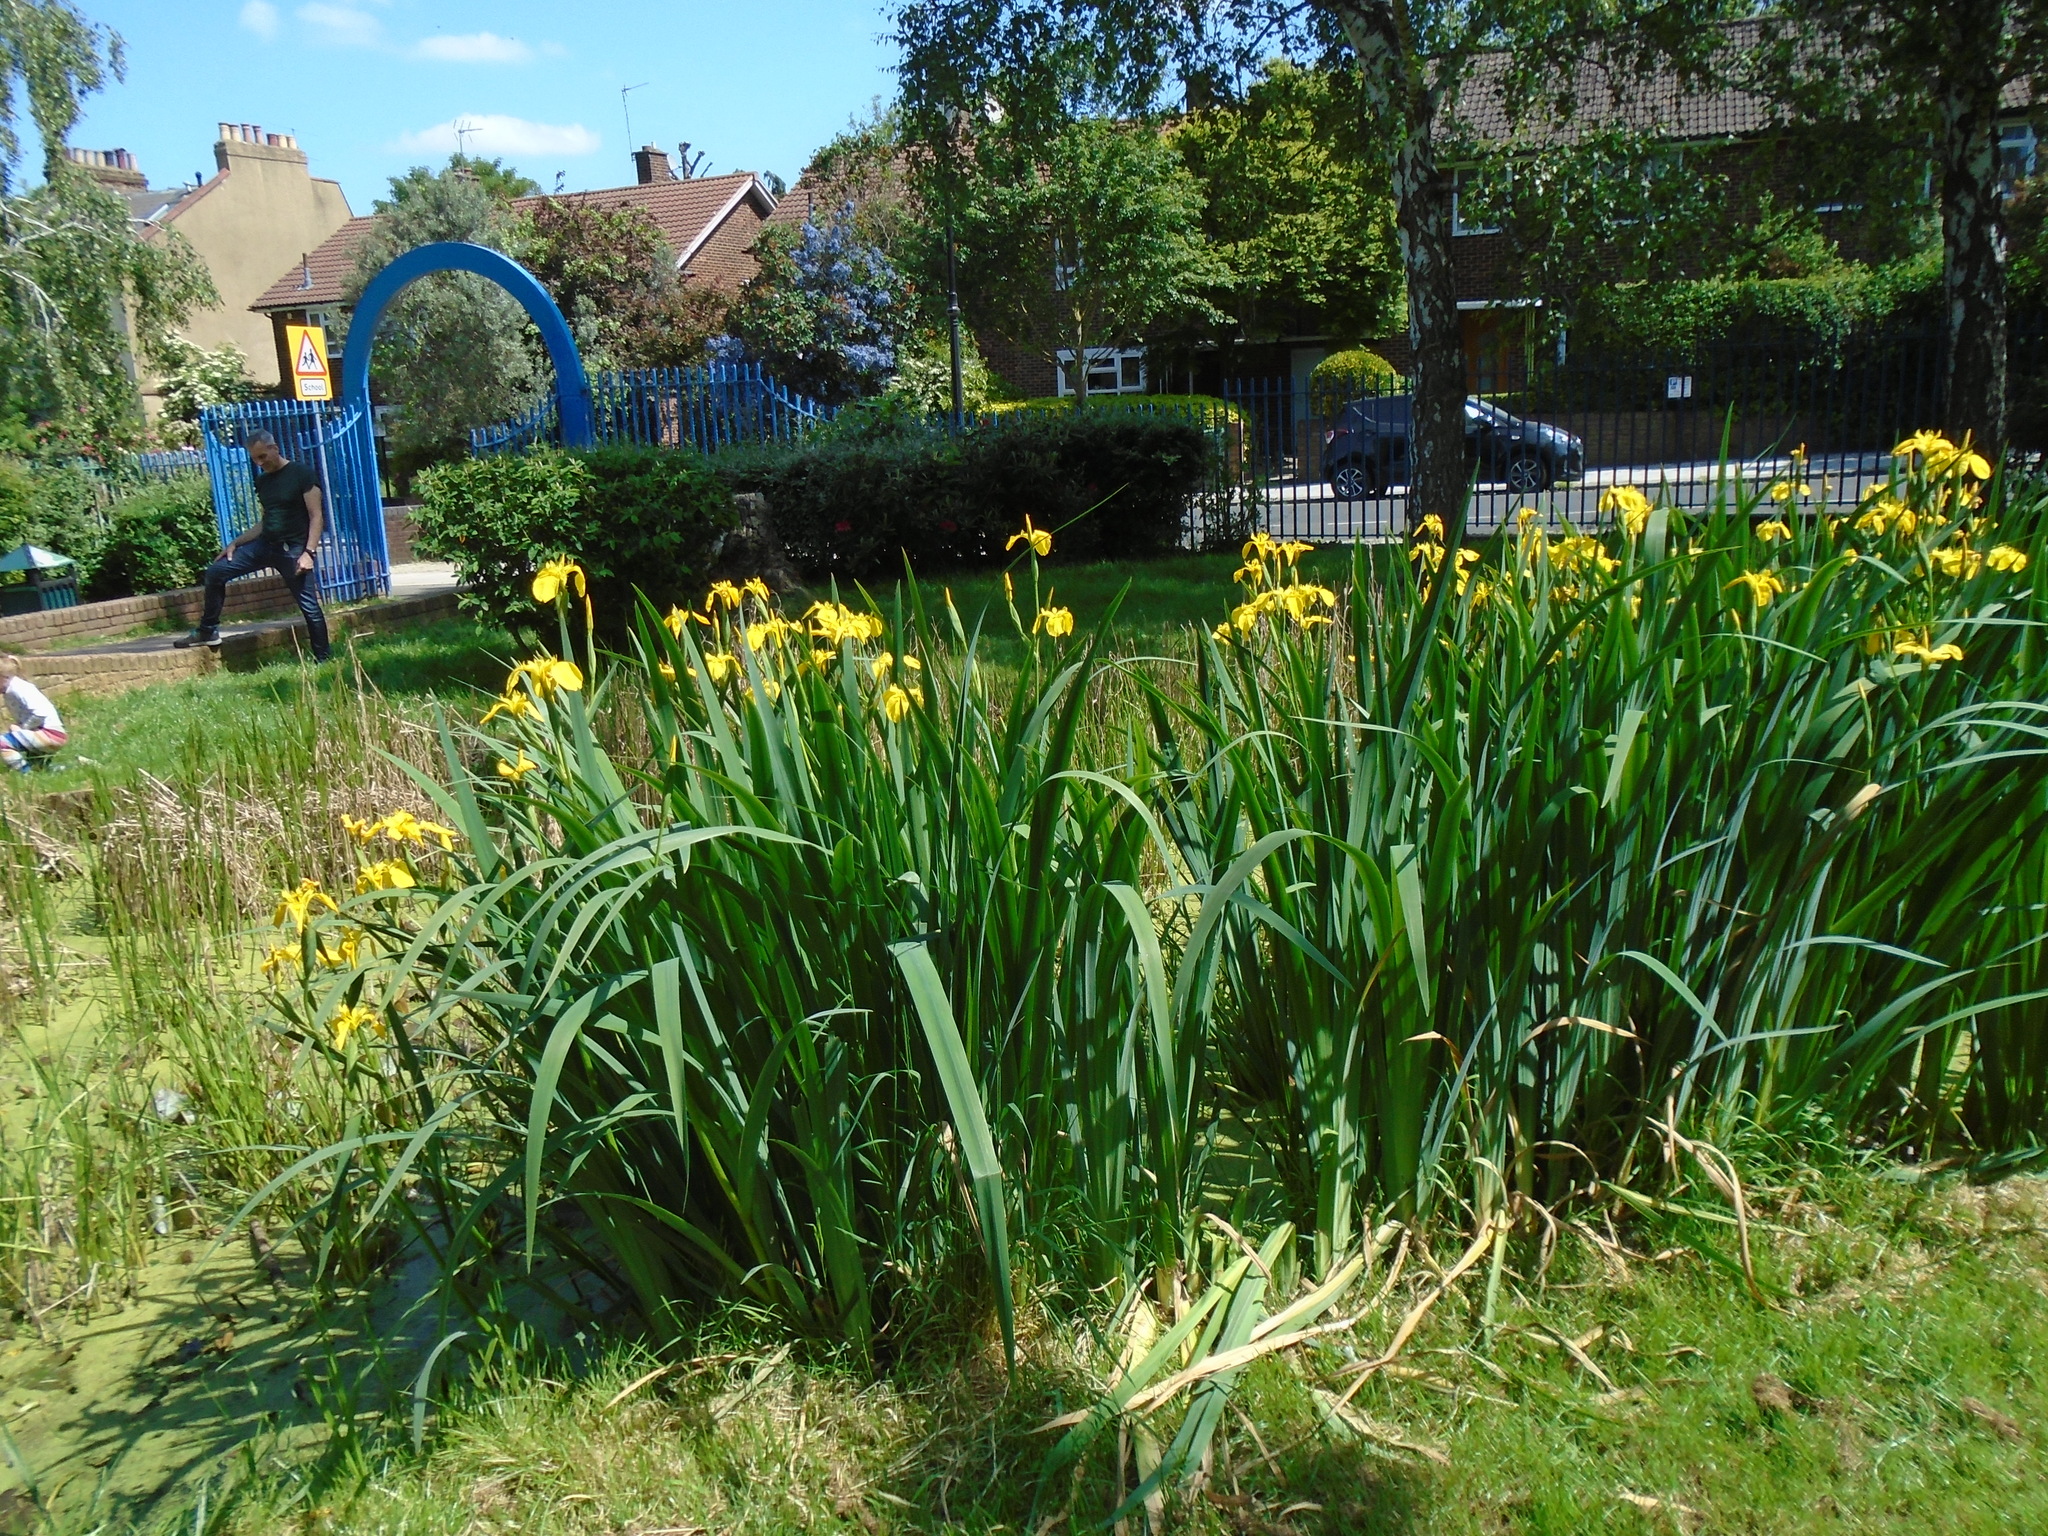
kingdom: Plantae
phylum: Tracheophyta
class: Liliopsida
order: Asparagales
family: Iridaceae
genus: Iris
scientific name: Iris pseudacorus
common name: Yellow flag
